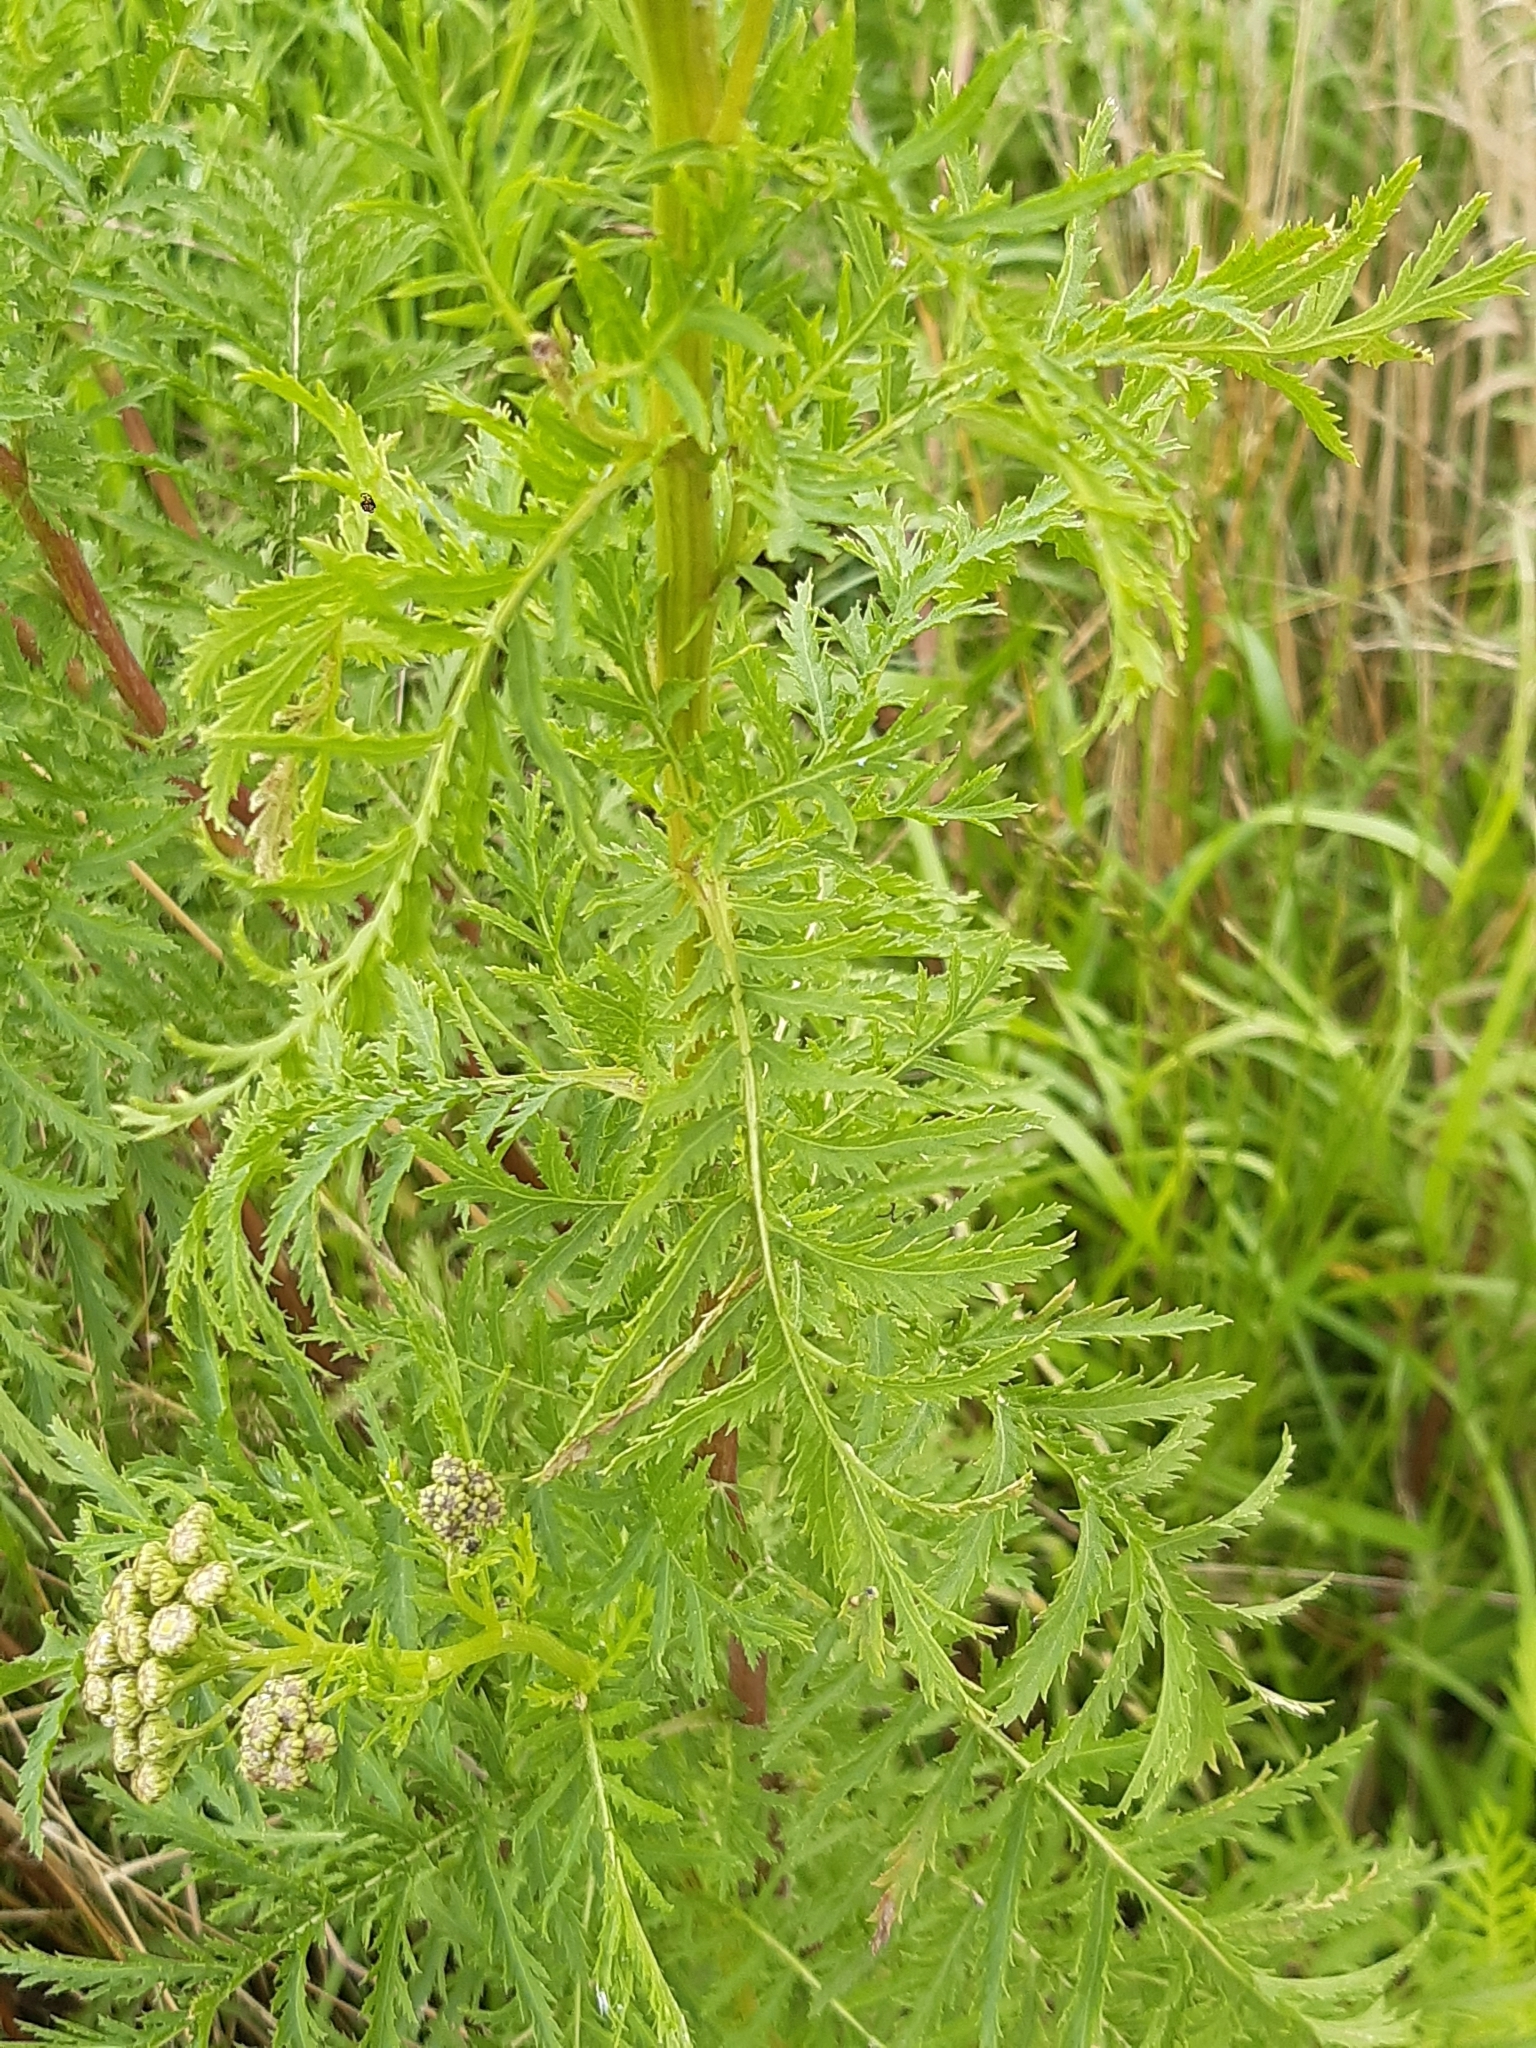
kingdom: Plantae
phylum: Tracheophyta
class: Magnoliopsida
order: Asterales
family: Asteraceae
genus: Tanacetum
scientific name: Tanacetum vulgare
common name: Common tansy
